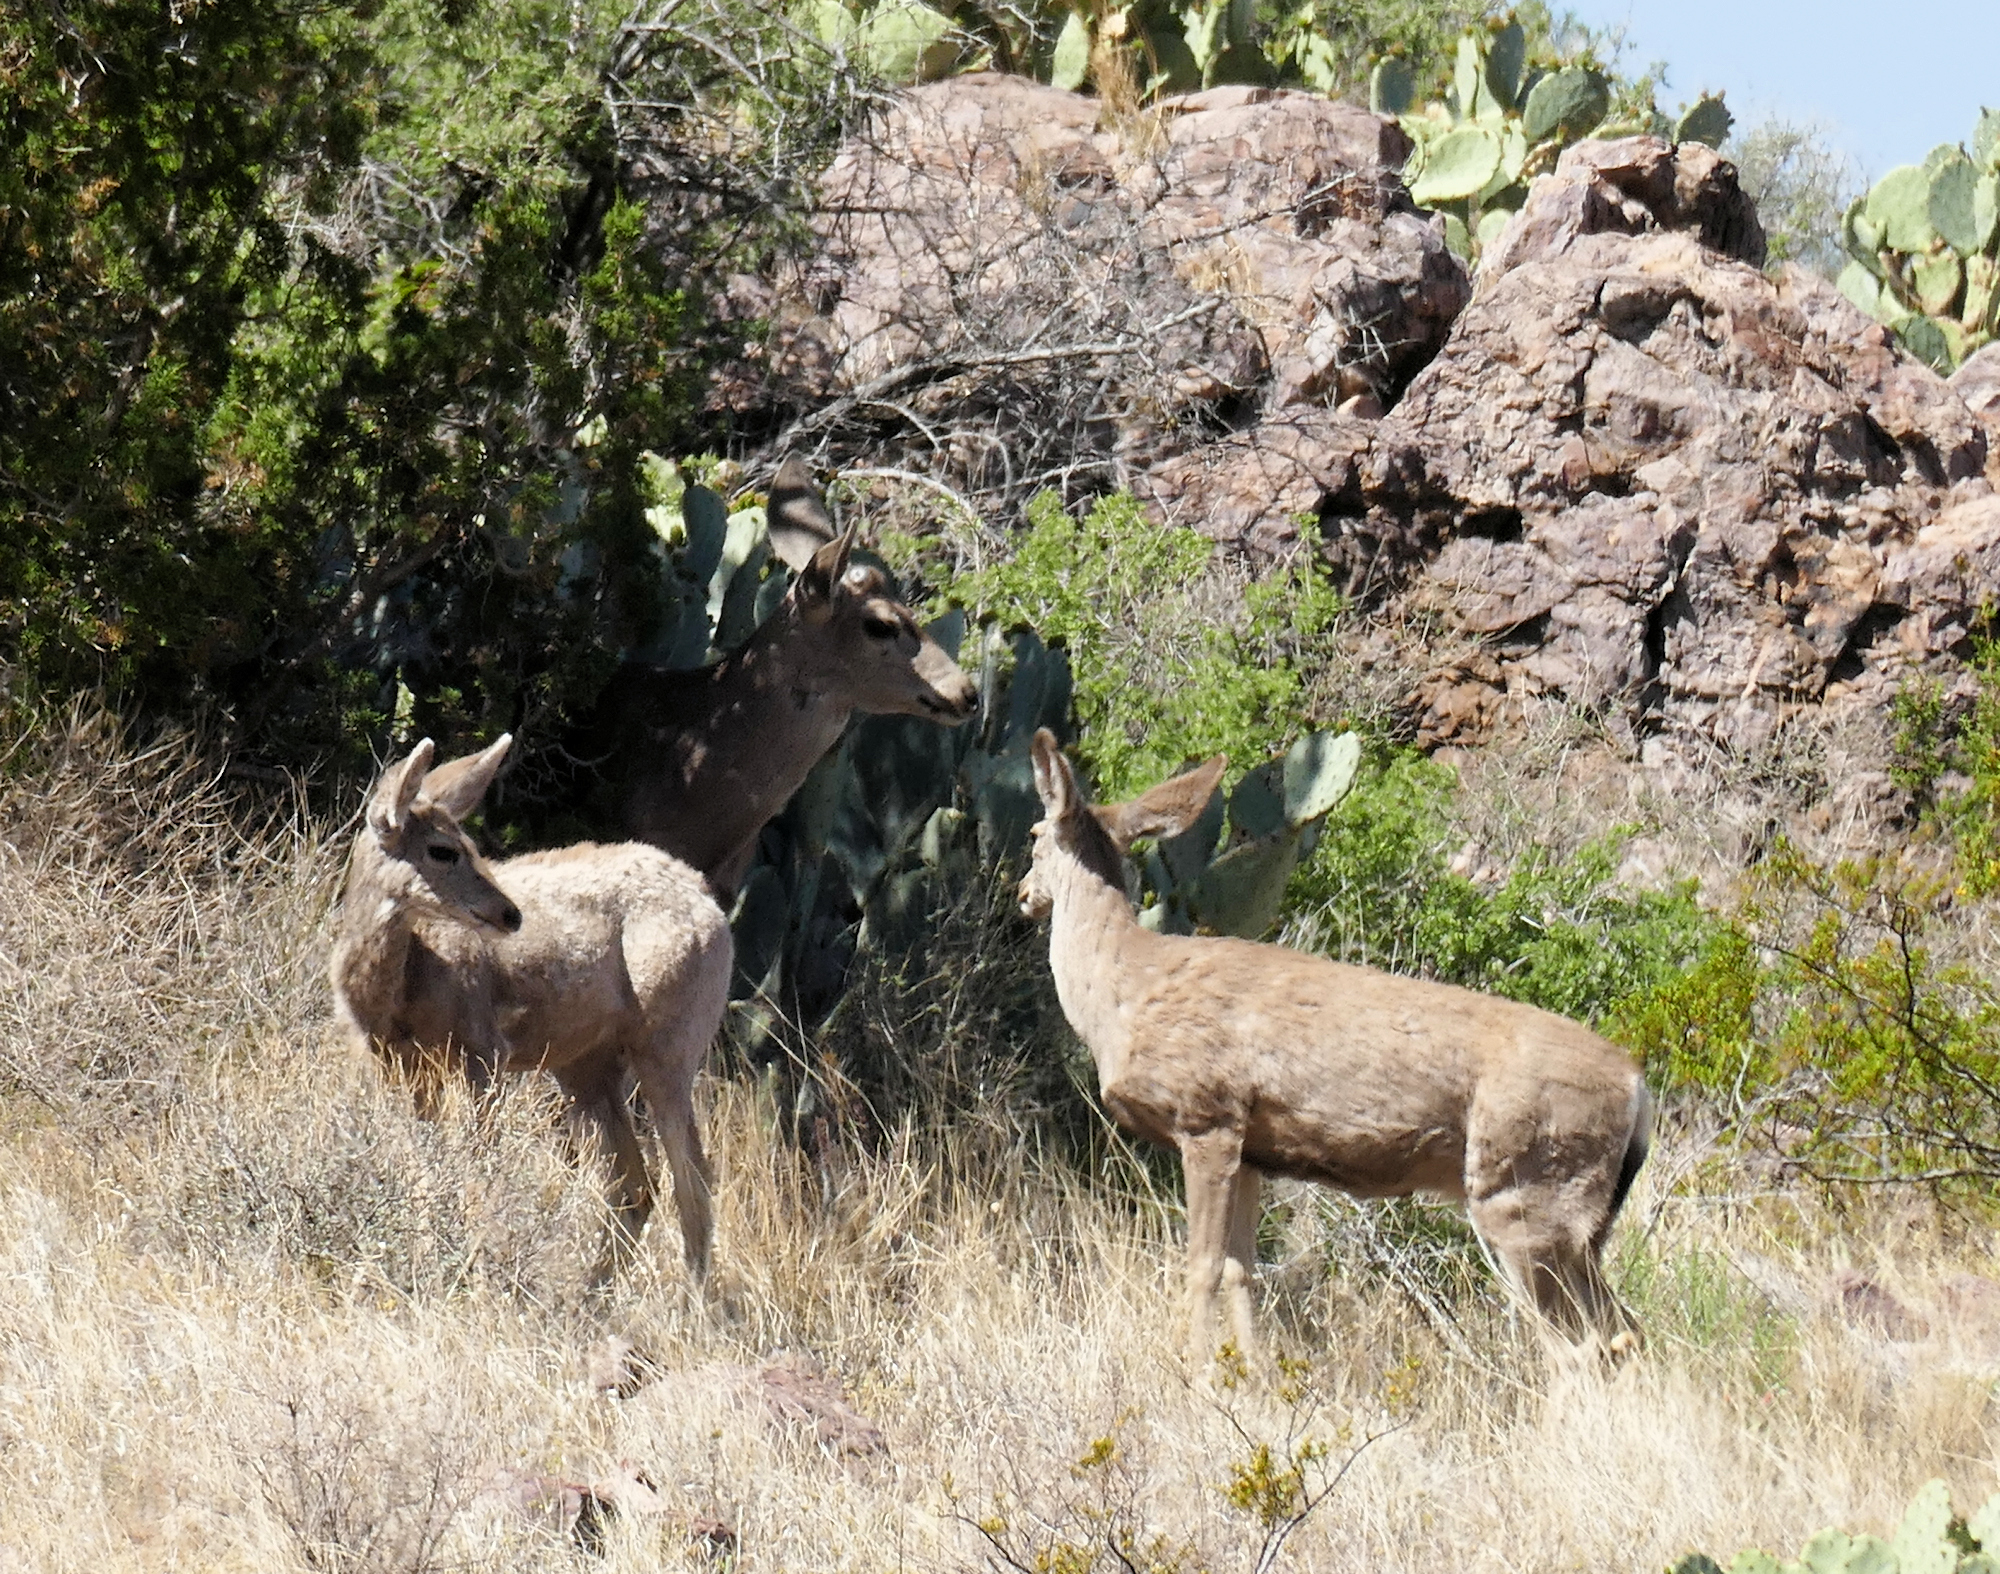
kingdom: Animalia
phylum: Chordata
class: Mammalia
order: Artiodactyla
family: Cervidae
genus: Odocoileus
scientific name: Odocoileus hemionus
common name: Mule deer
